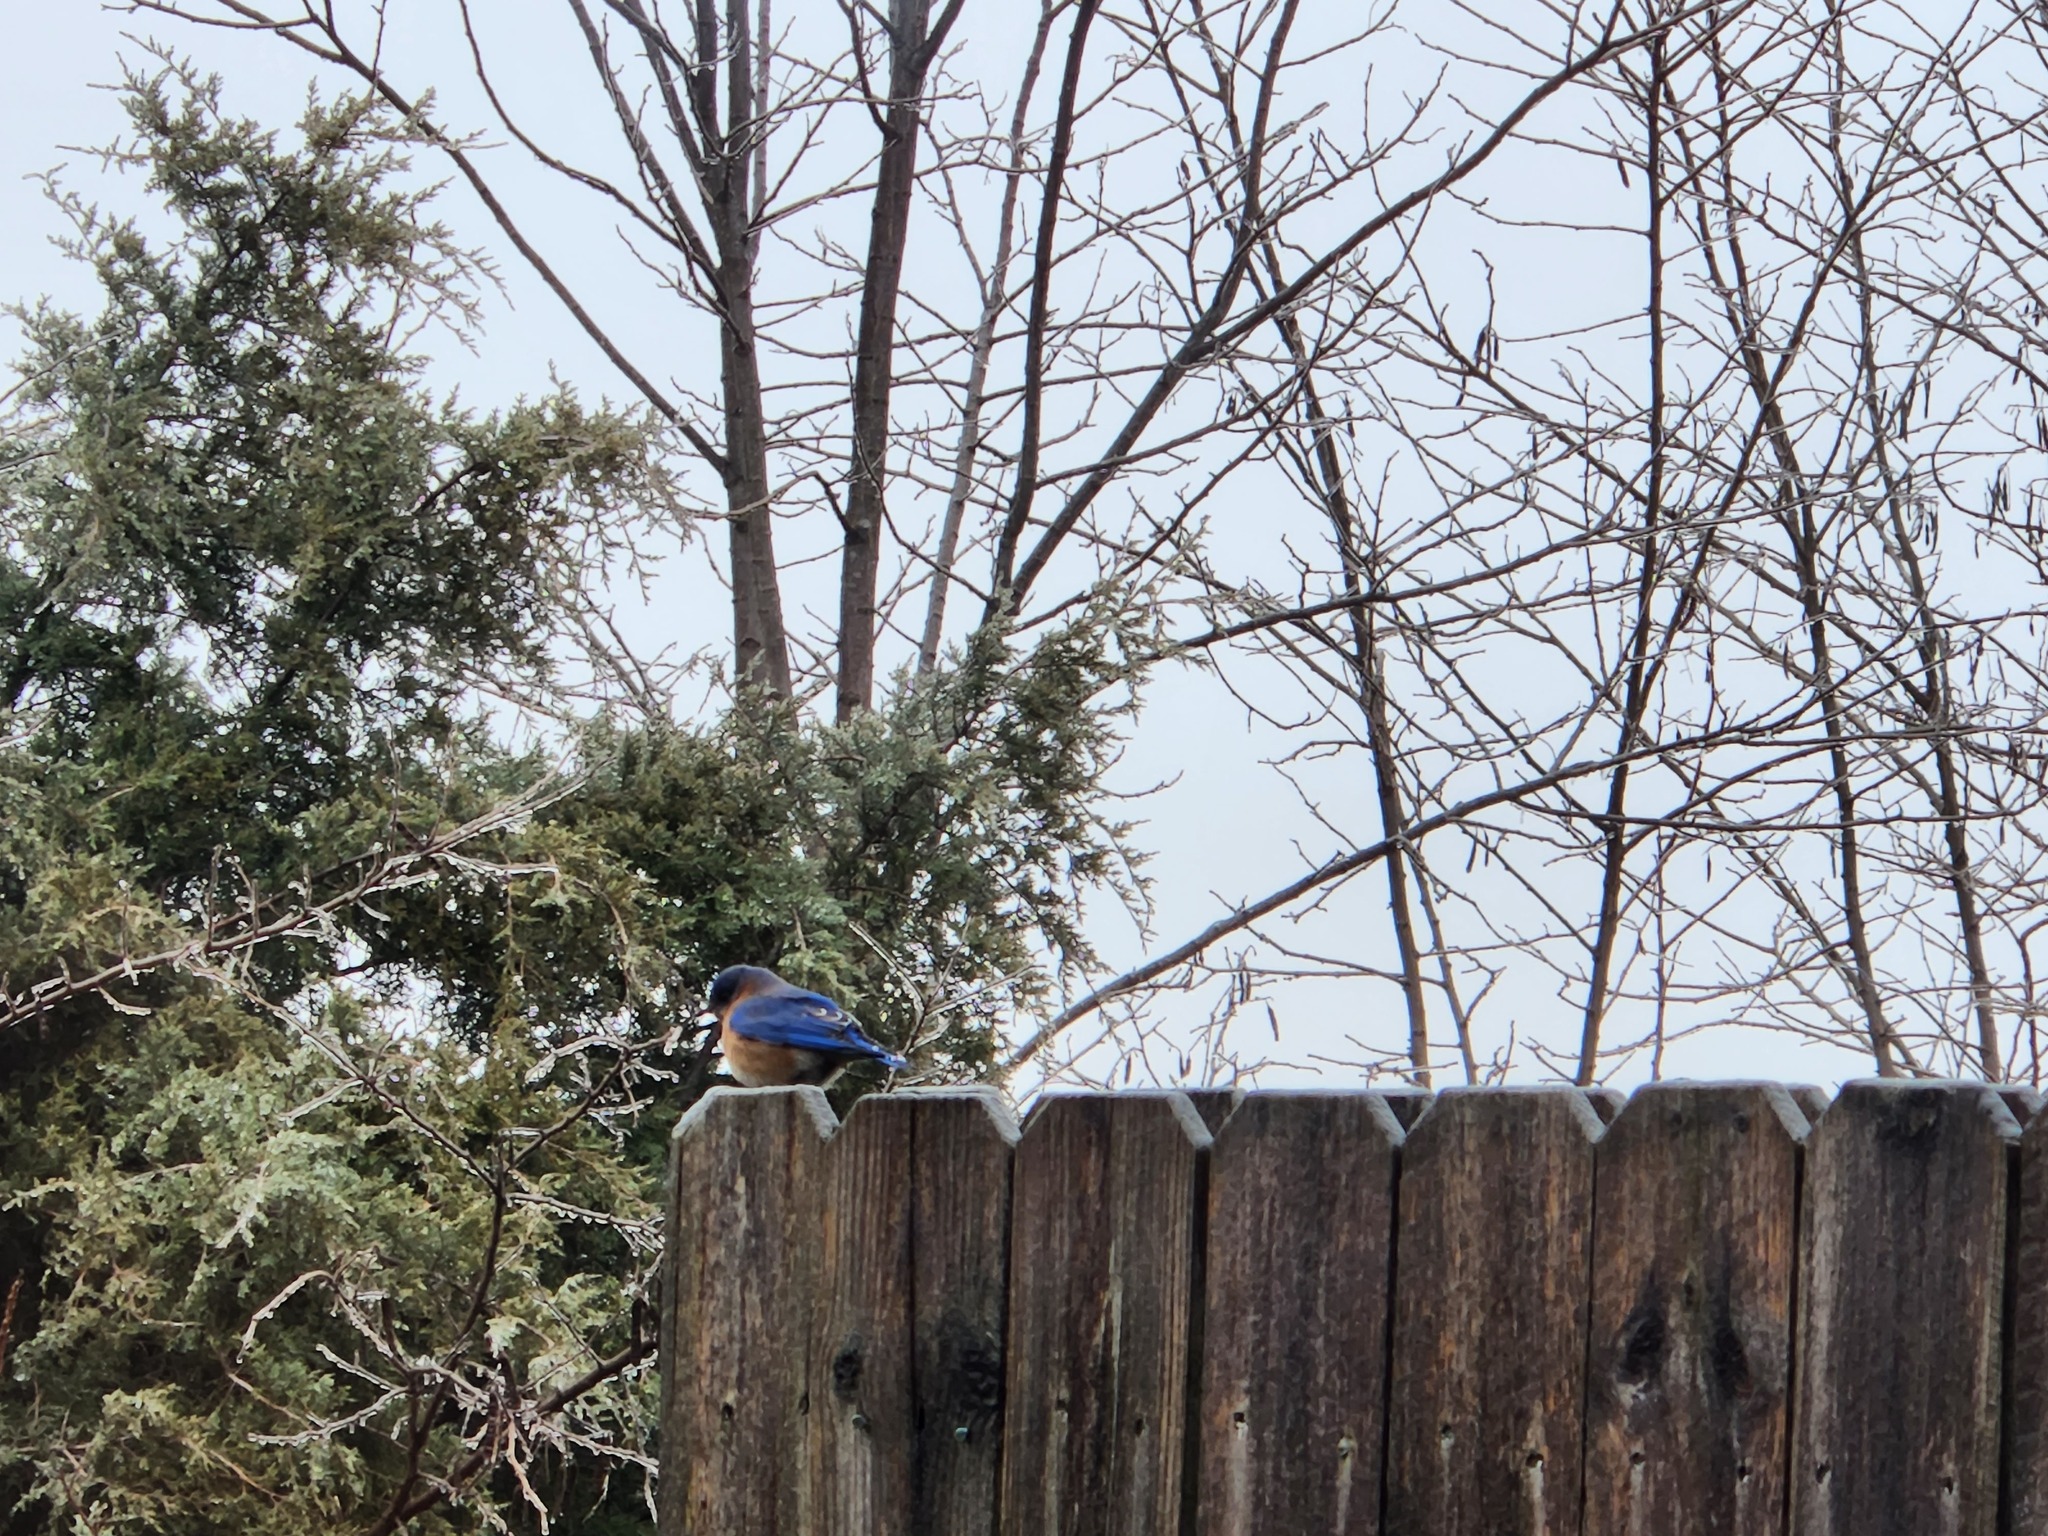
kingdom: Animalia
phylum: Chordata
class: Aves
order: Passeriformes
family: Turdidae
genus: Sialia
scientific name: Sialia sialis
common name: Eastern bluebird
